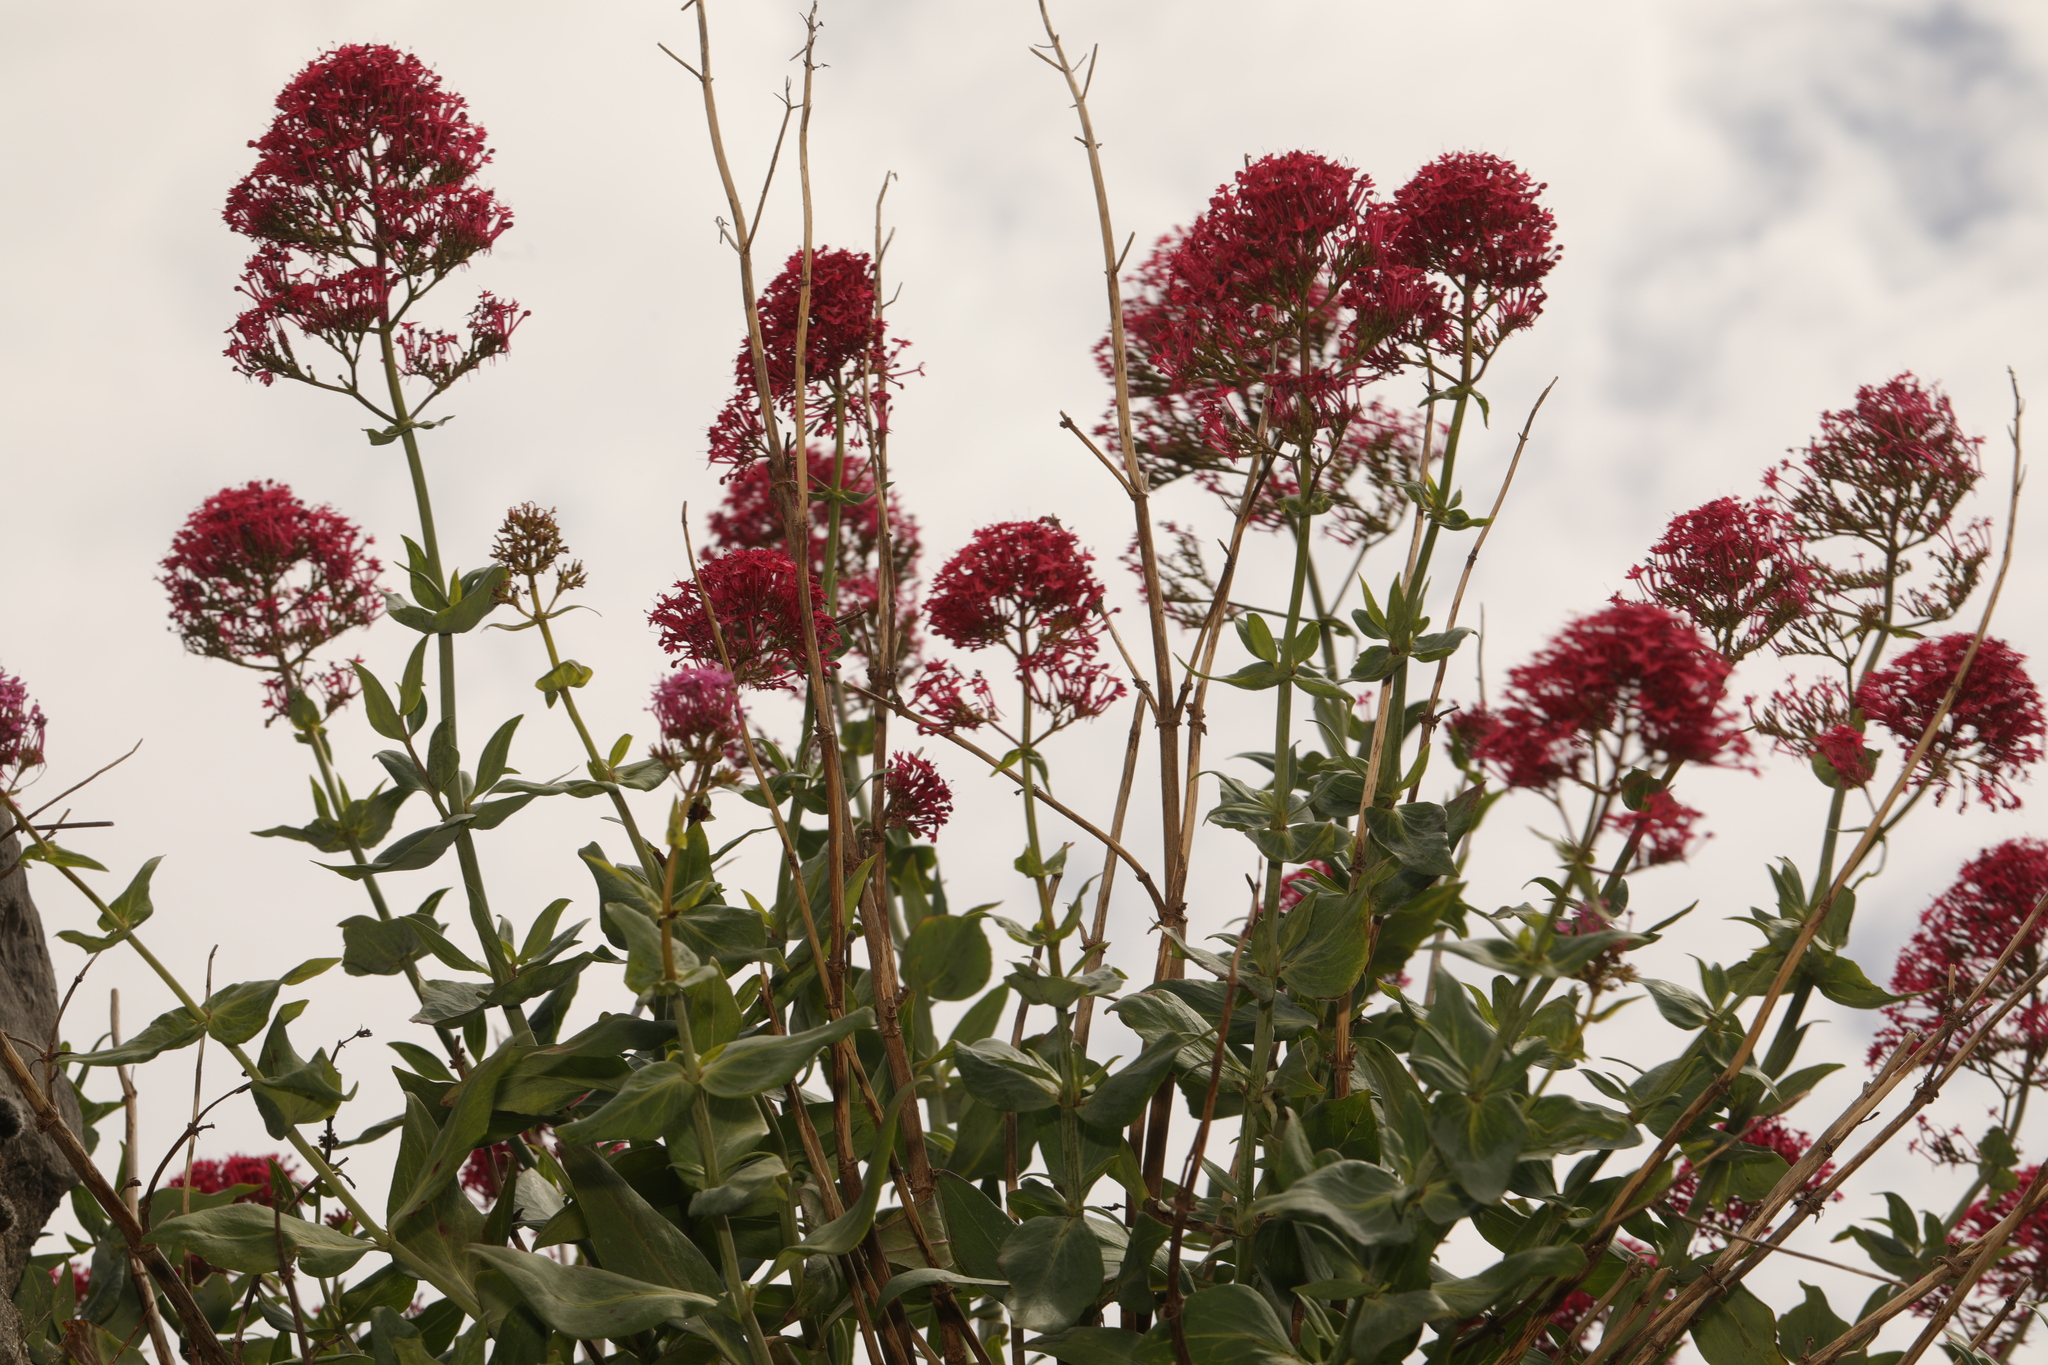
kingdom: Plantae
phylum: Tracheophyta
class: Magnoliopsida
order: Dipsacales
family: Caprifoliaceae
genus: Centranthus
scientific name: Centranthus ruber
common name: Red valerian
